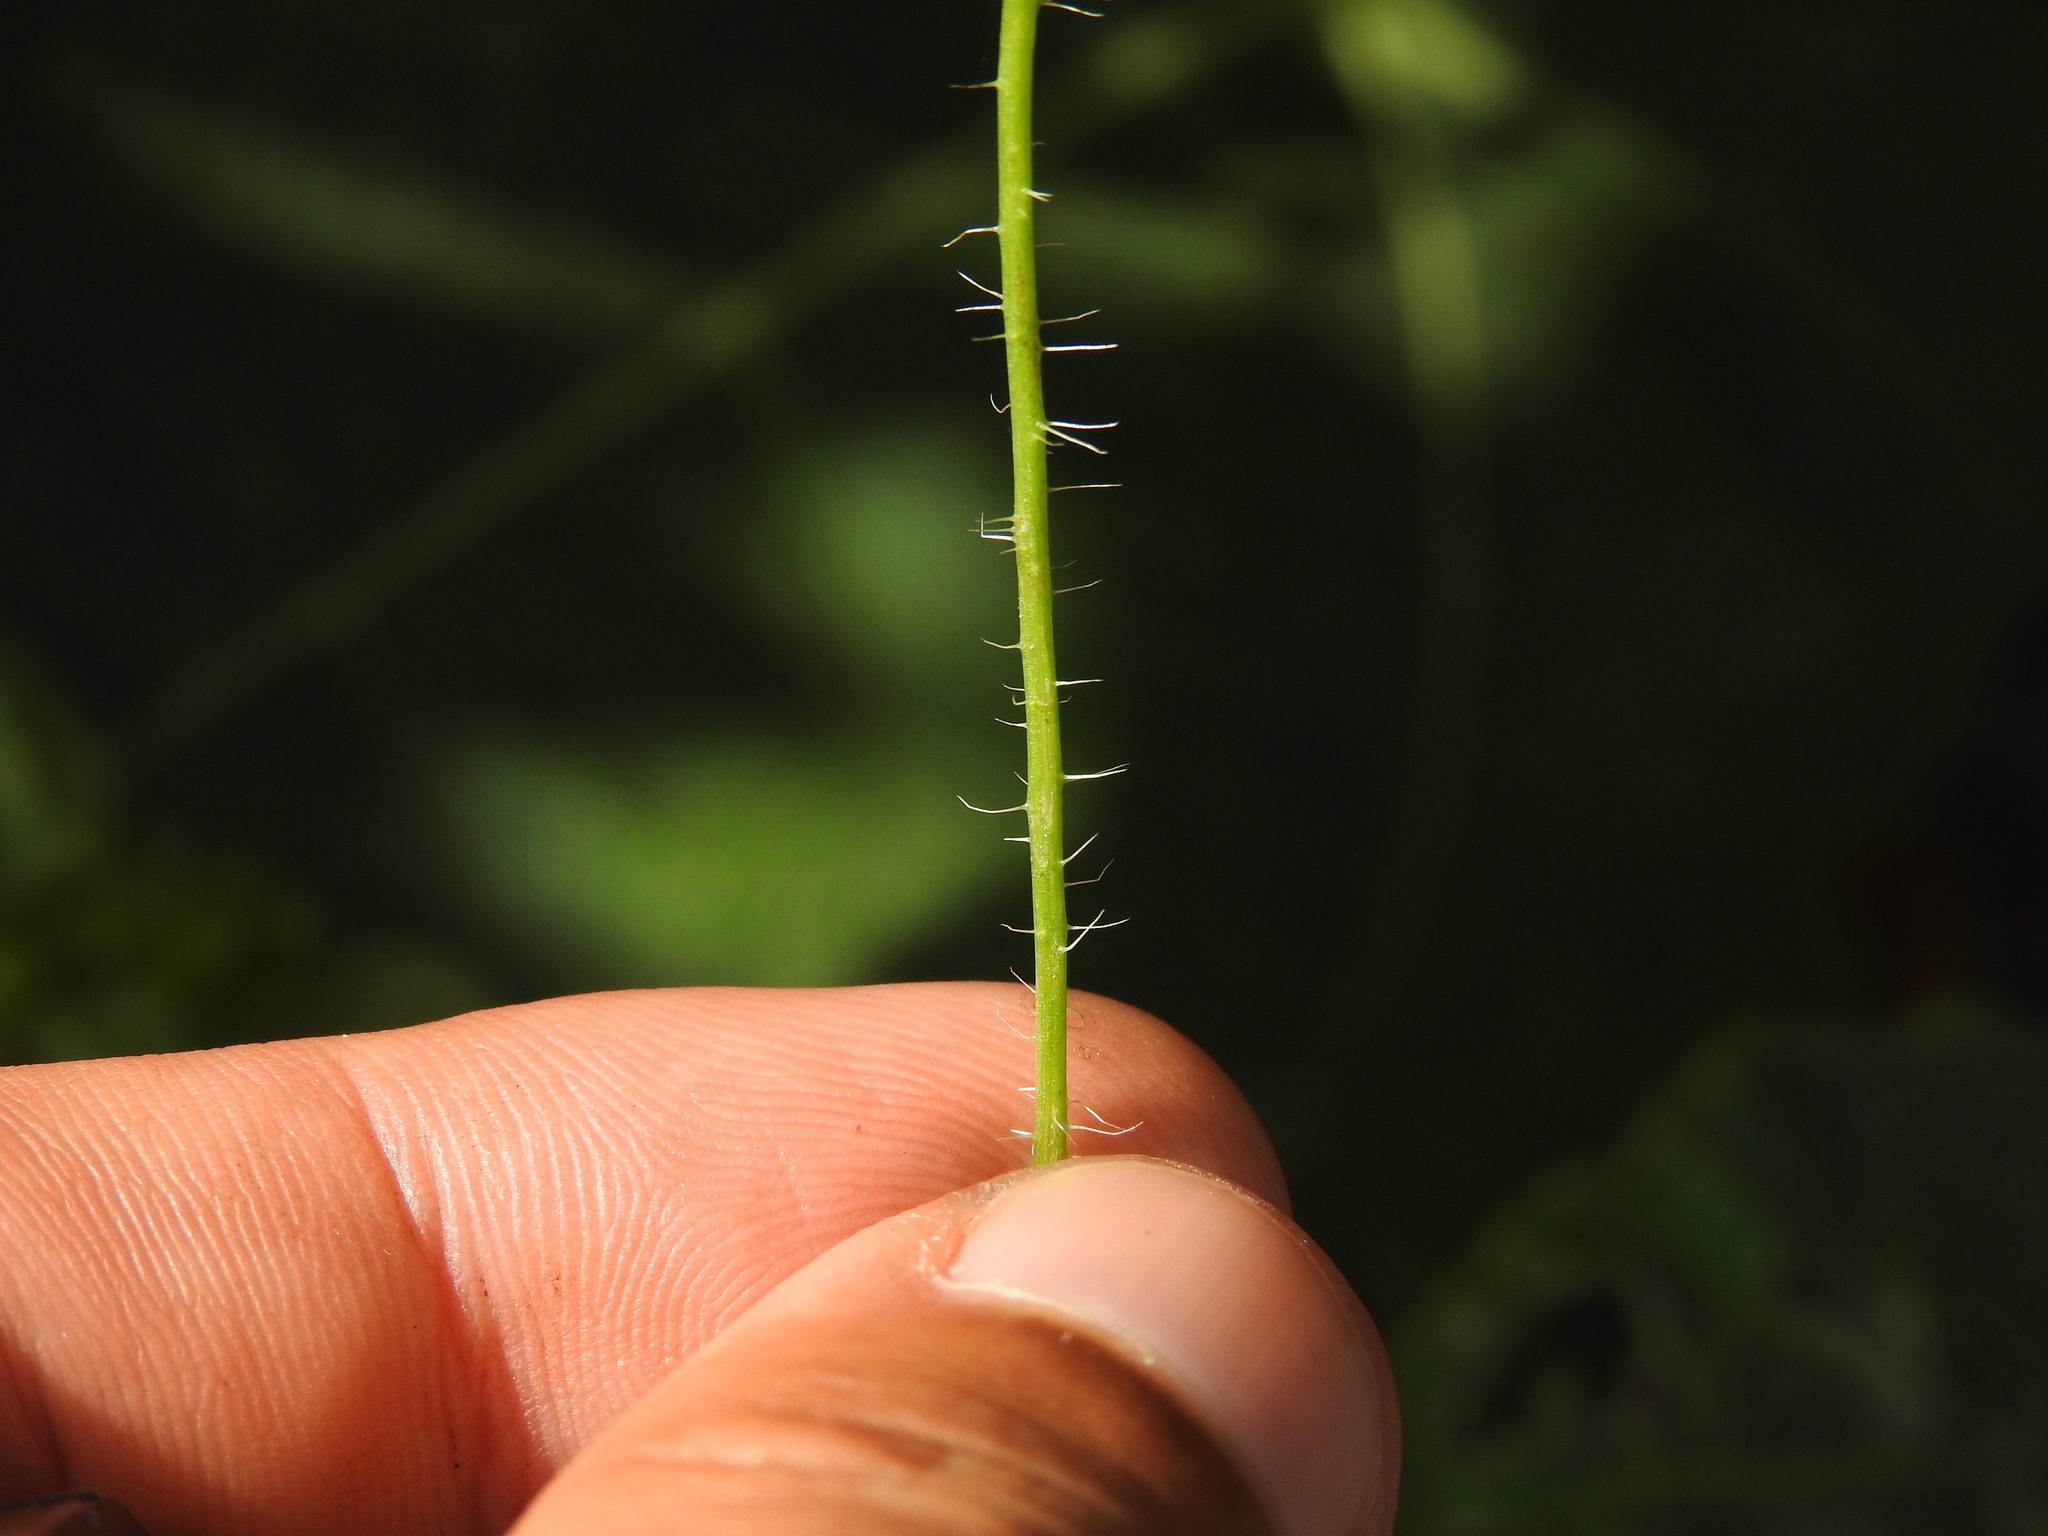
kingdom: Plantae
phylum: Tracheophyta
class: Magnoliopsida
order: Ranunculales
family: Papaveraceae
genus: Papaver
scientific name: Papaver rhoeas
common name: Corn poppy
